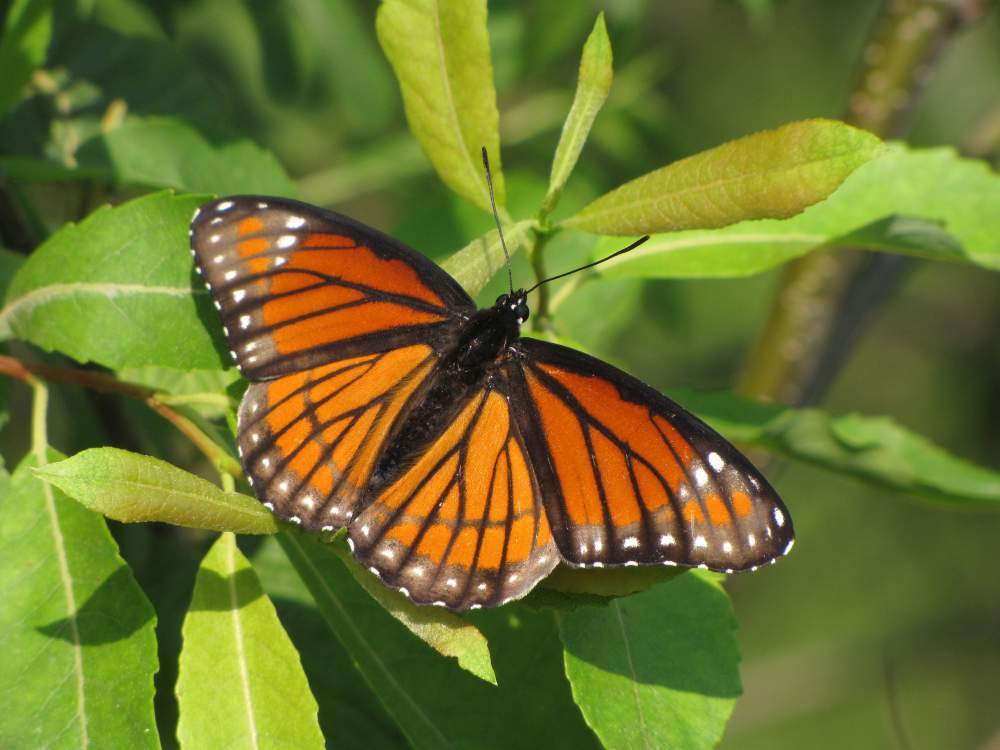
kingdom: Animalia
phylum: Arthropoda
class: Insecta
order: Lepidoptera
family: Nymphalidae
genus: Limenitis
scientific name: Limenitis archippus
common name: Viceroy
